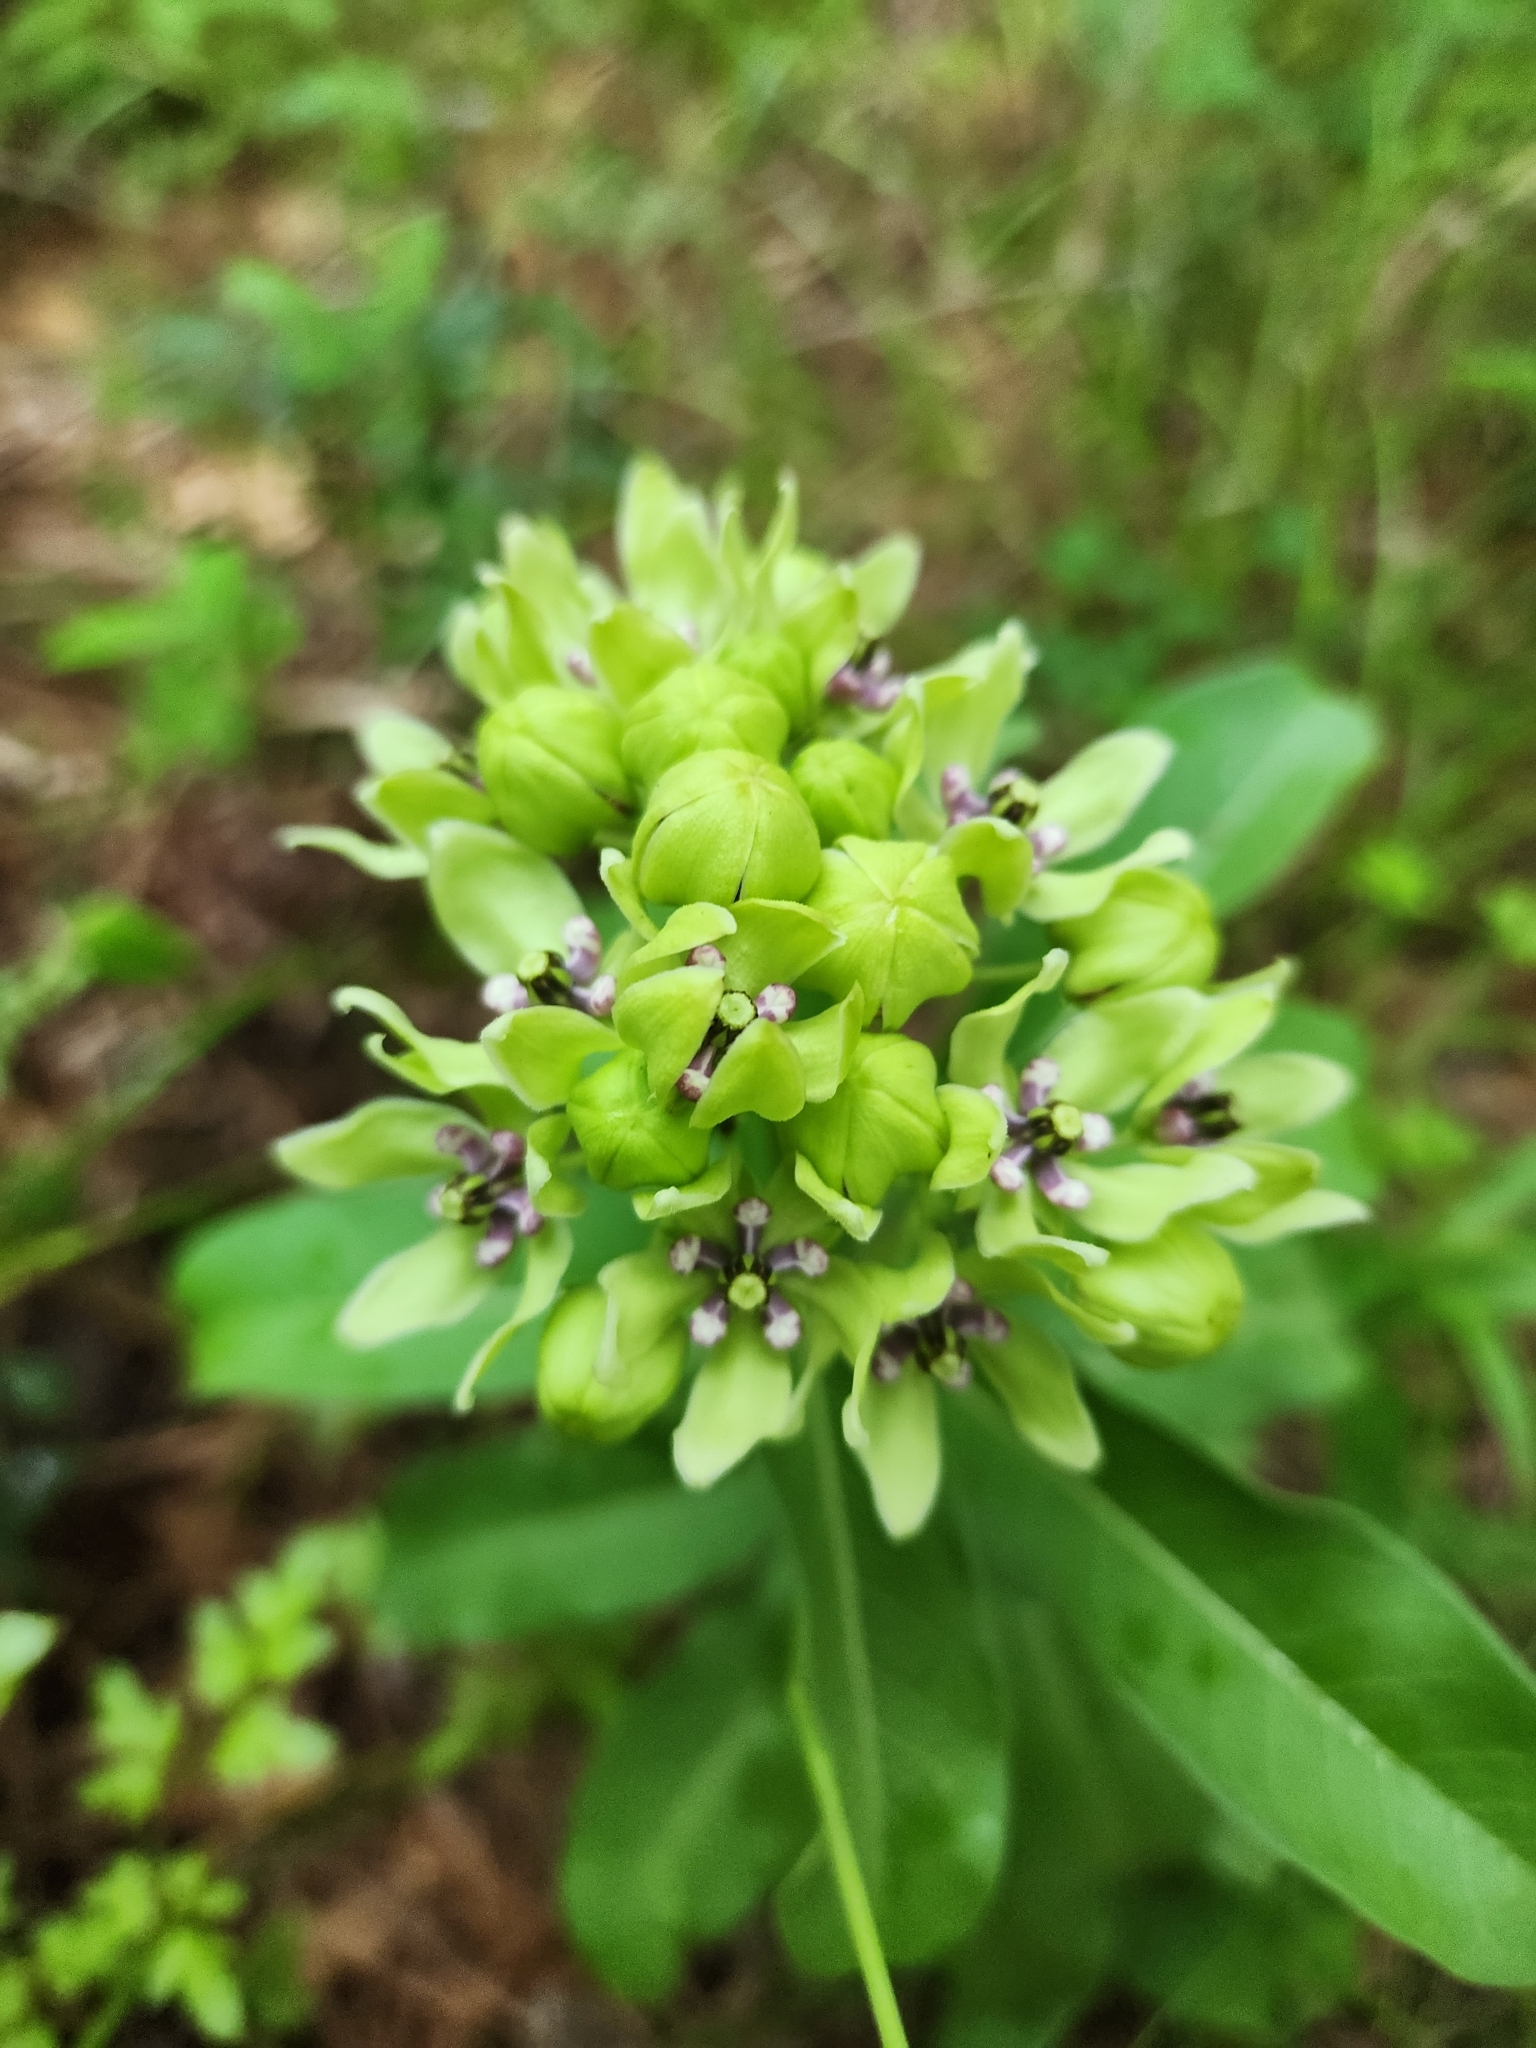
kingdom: Plantae
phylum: Tracheophyta
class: Magnoliopsida
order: Gentianales
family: Apocynaceae
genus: Asclepias
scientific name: Asclepias viridis
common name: Antelope-horns
